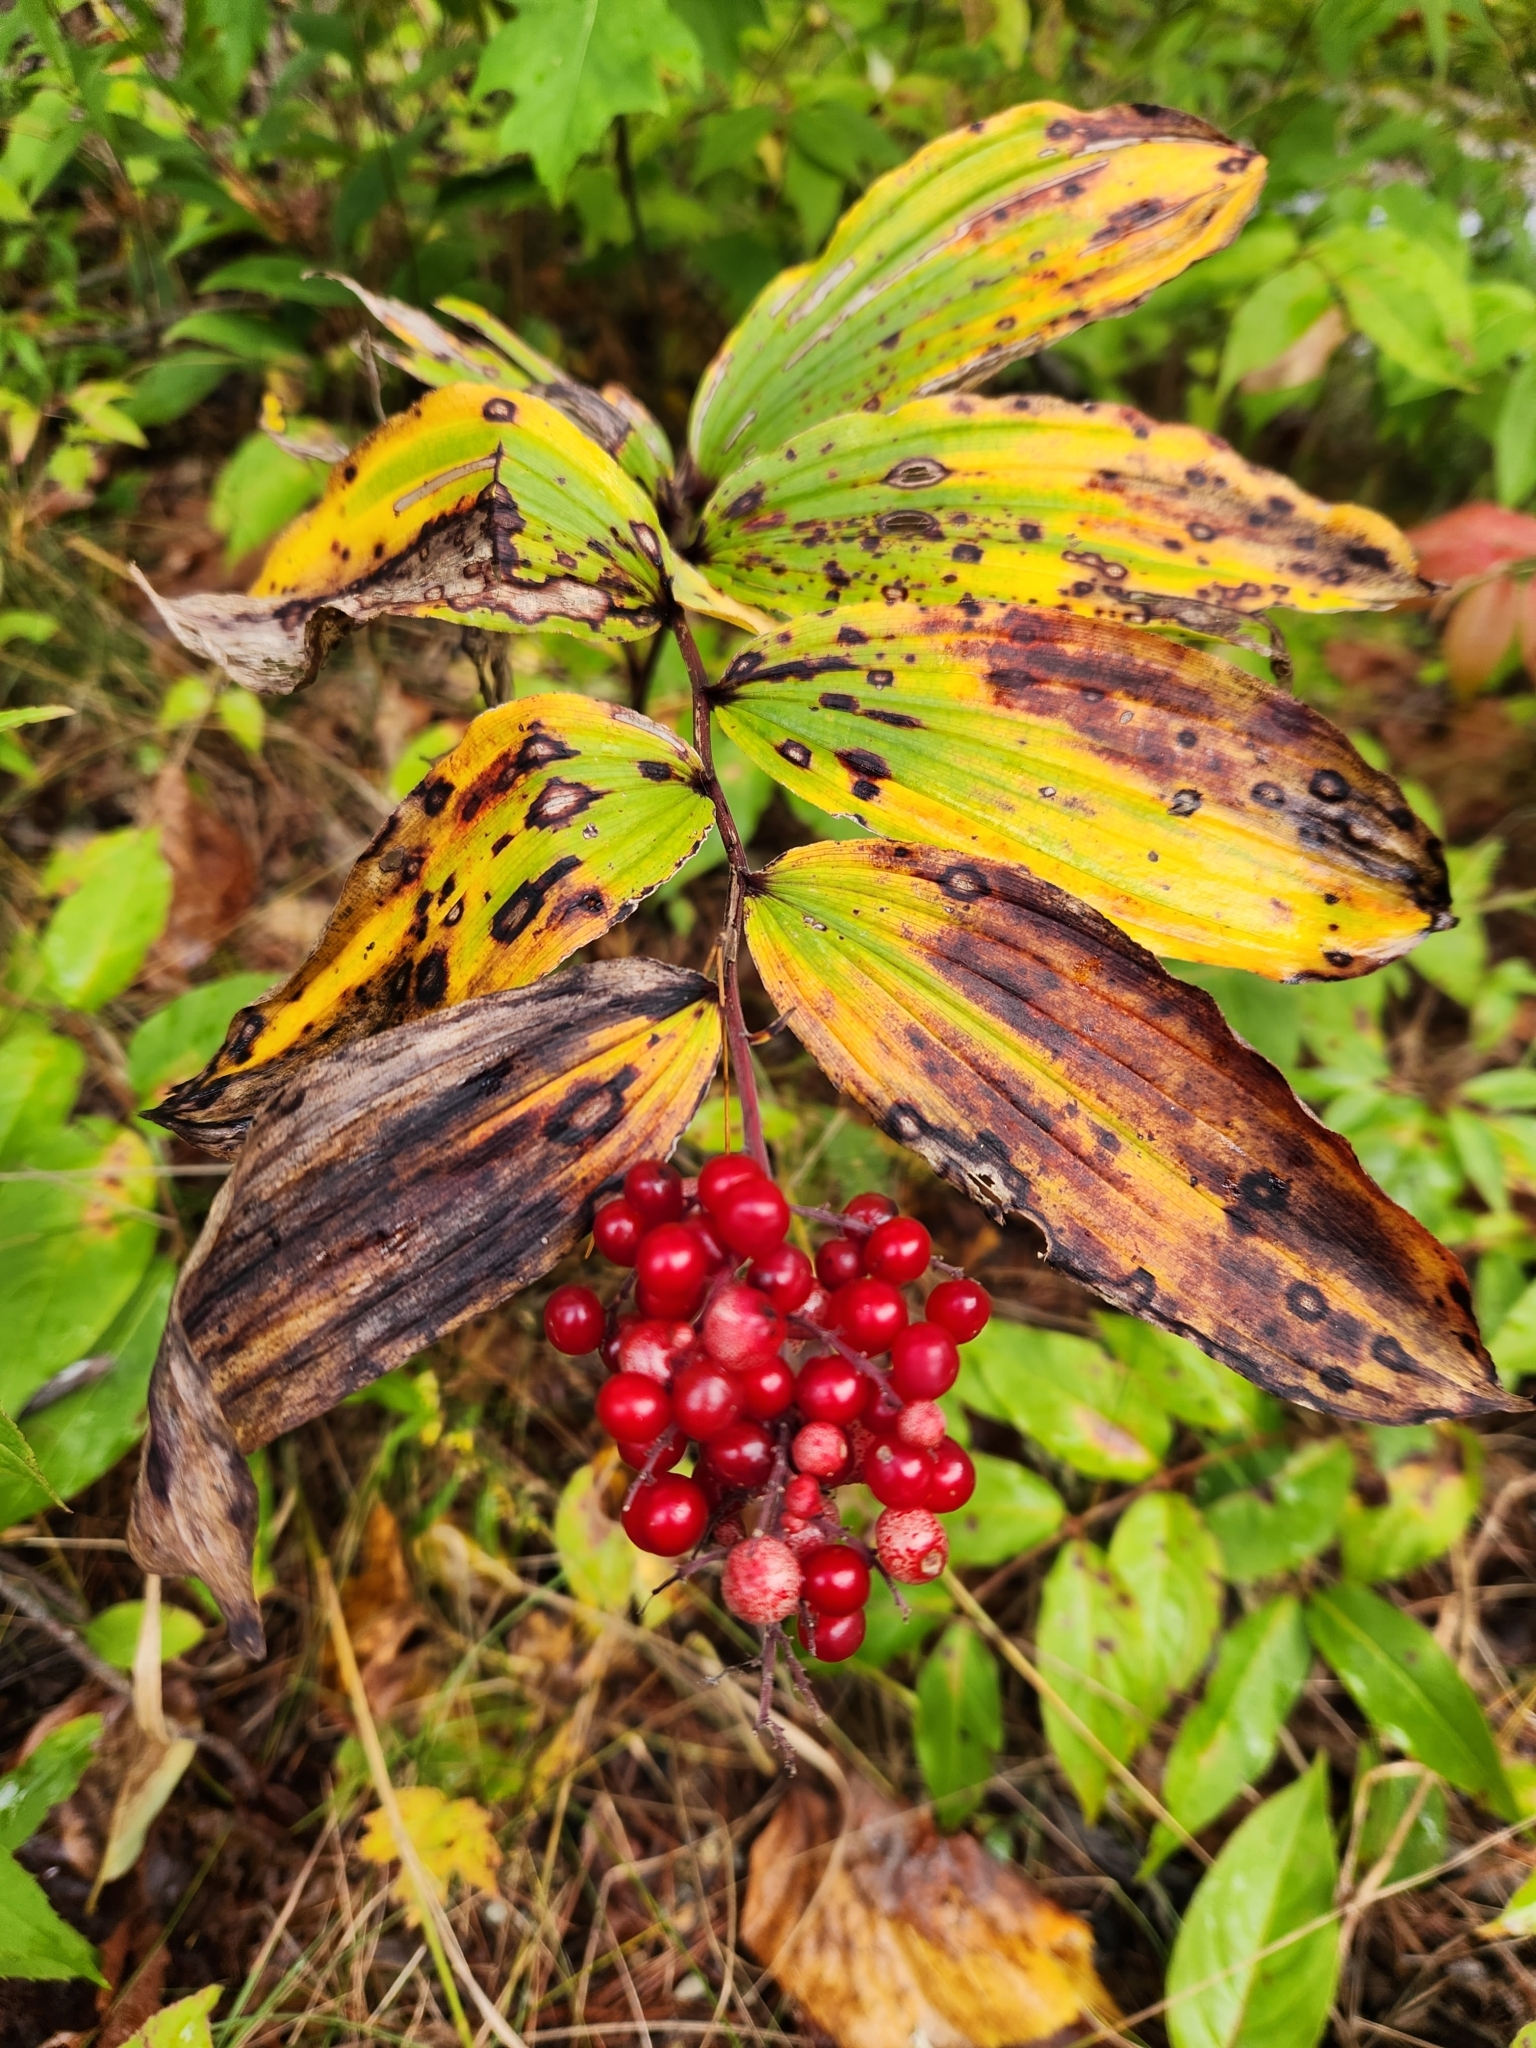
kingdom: Plantae
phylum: Tracheophyta
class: Liliopsida
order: Asparagales
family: Asparagaceae
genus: Maianthemum
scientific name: Maianthemum racemosum
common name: False spikenard
